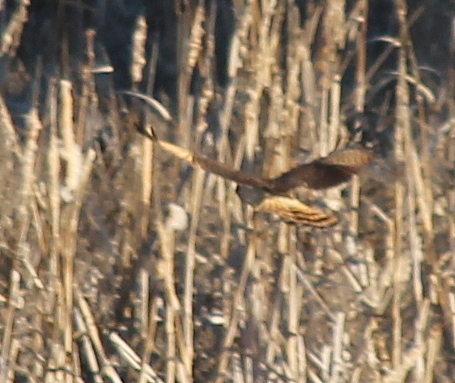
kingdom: Animalia
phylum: Chordata
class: Aves
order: Accipitriformes
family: Accipitridae
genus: Rupornis
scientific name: Rupornis magnirostris
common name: Roadside hawk
